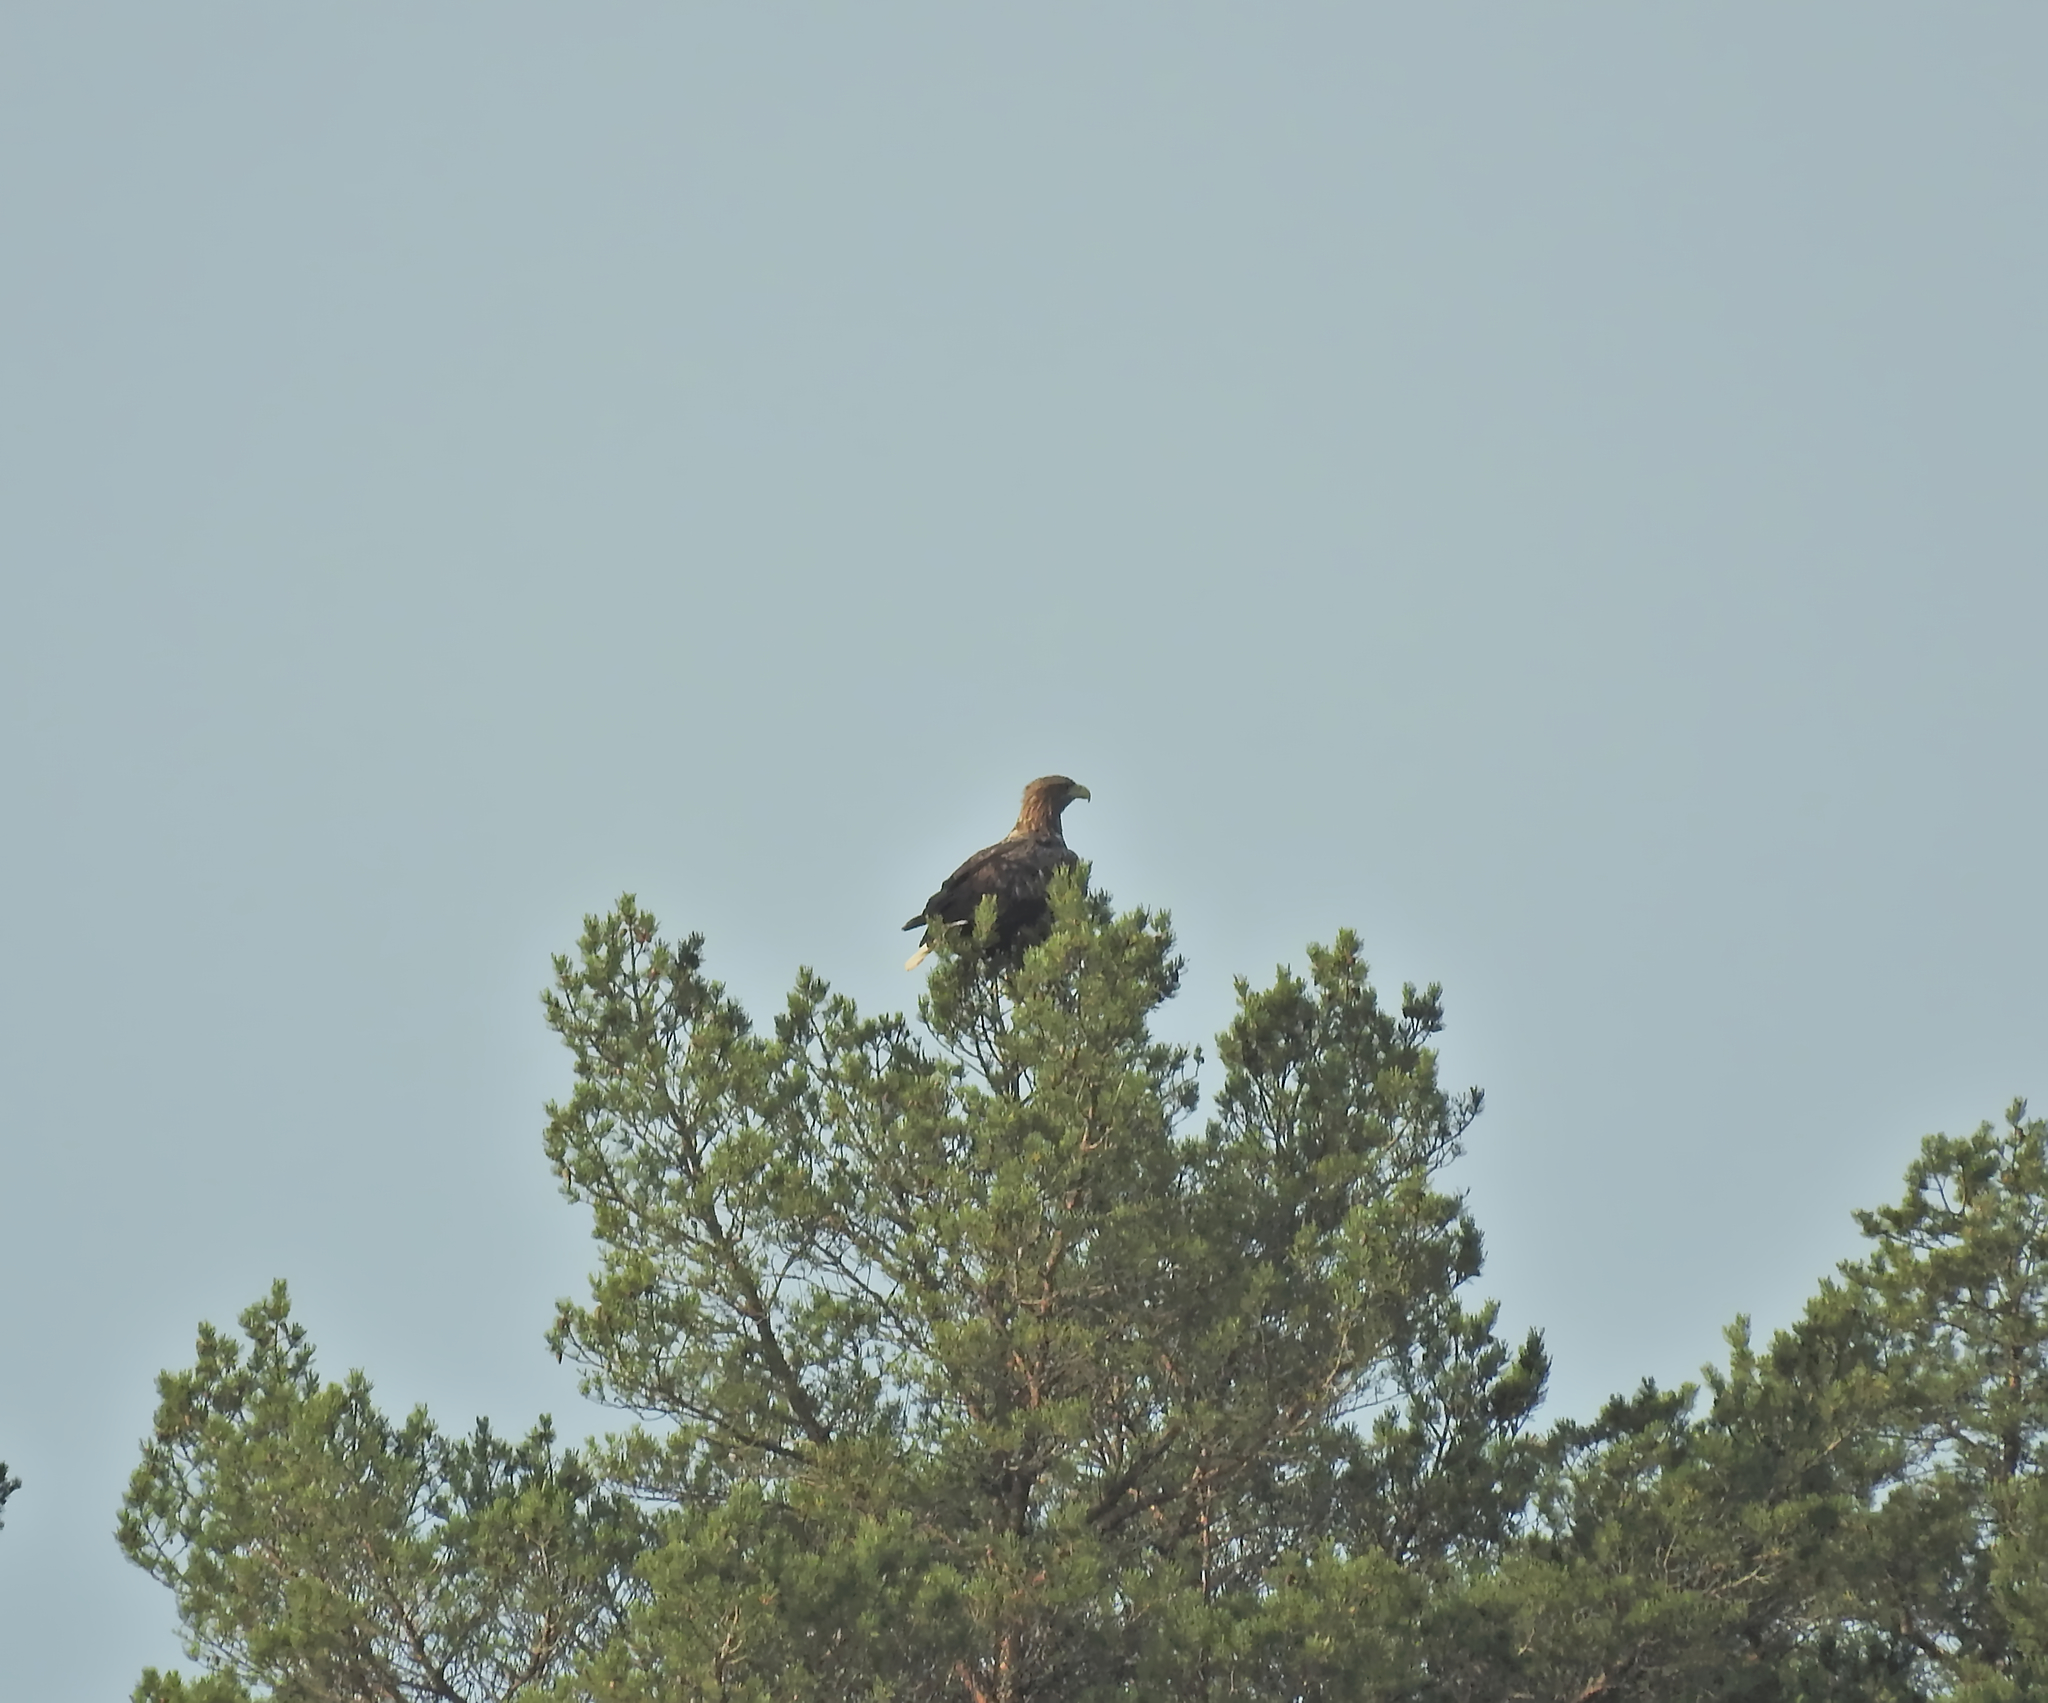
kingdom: Animalia
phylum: Chordata
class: Aves
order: Accipitriformes
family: Accipitridae
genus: Haliaeetus
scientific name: Haliaeetus albicilla
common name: White-tailed eagle
